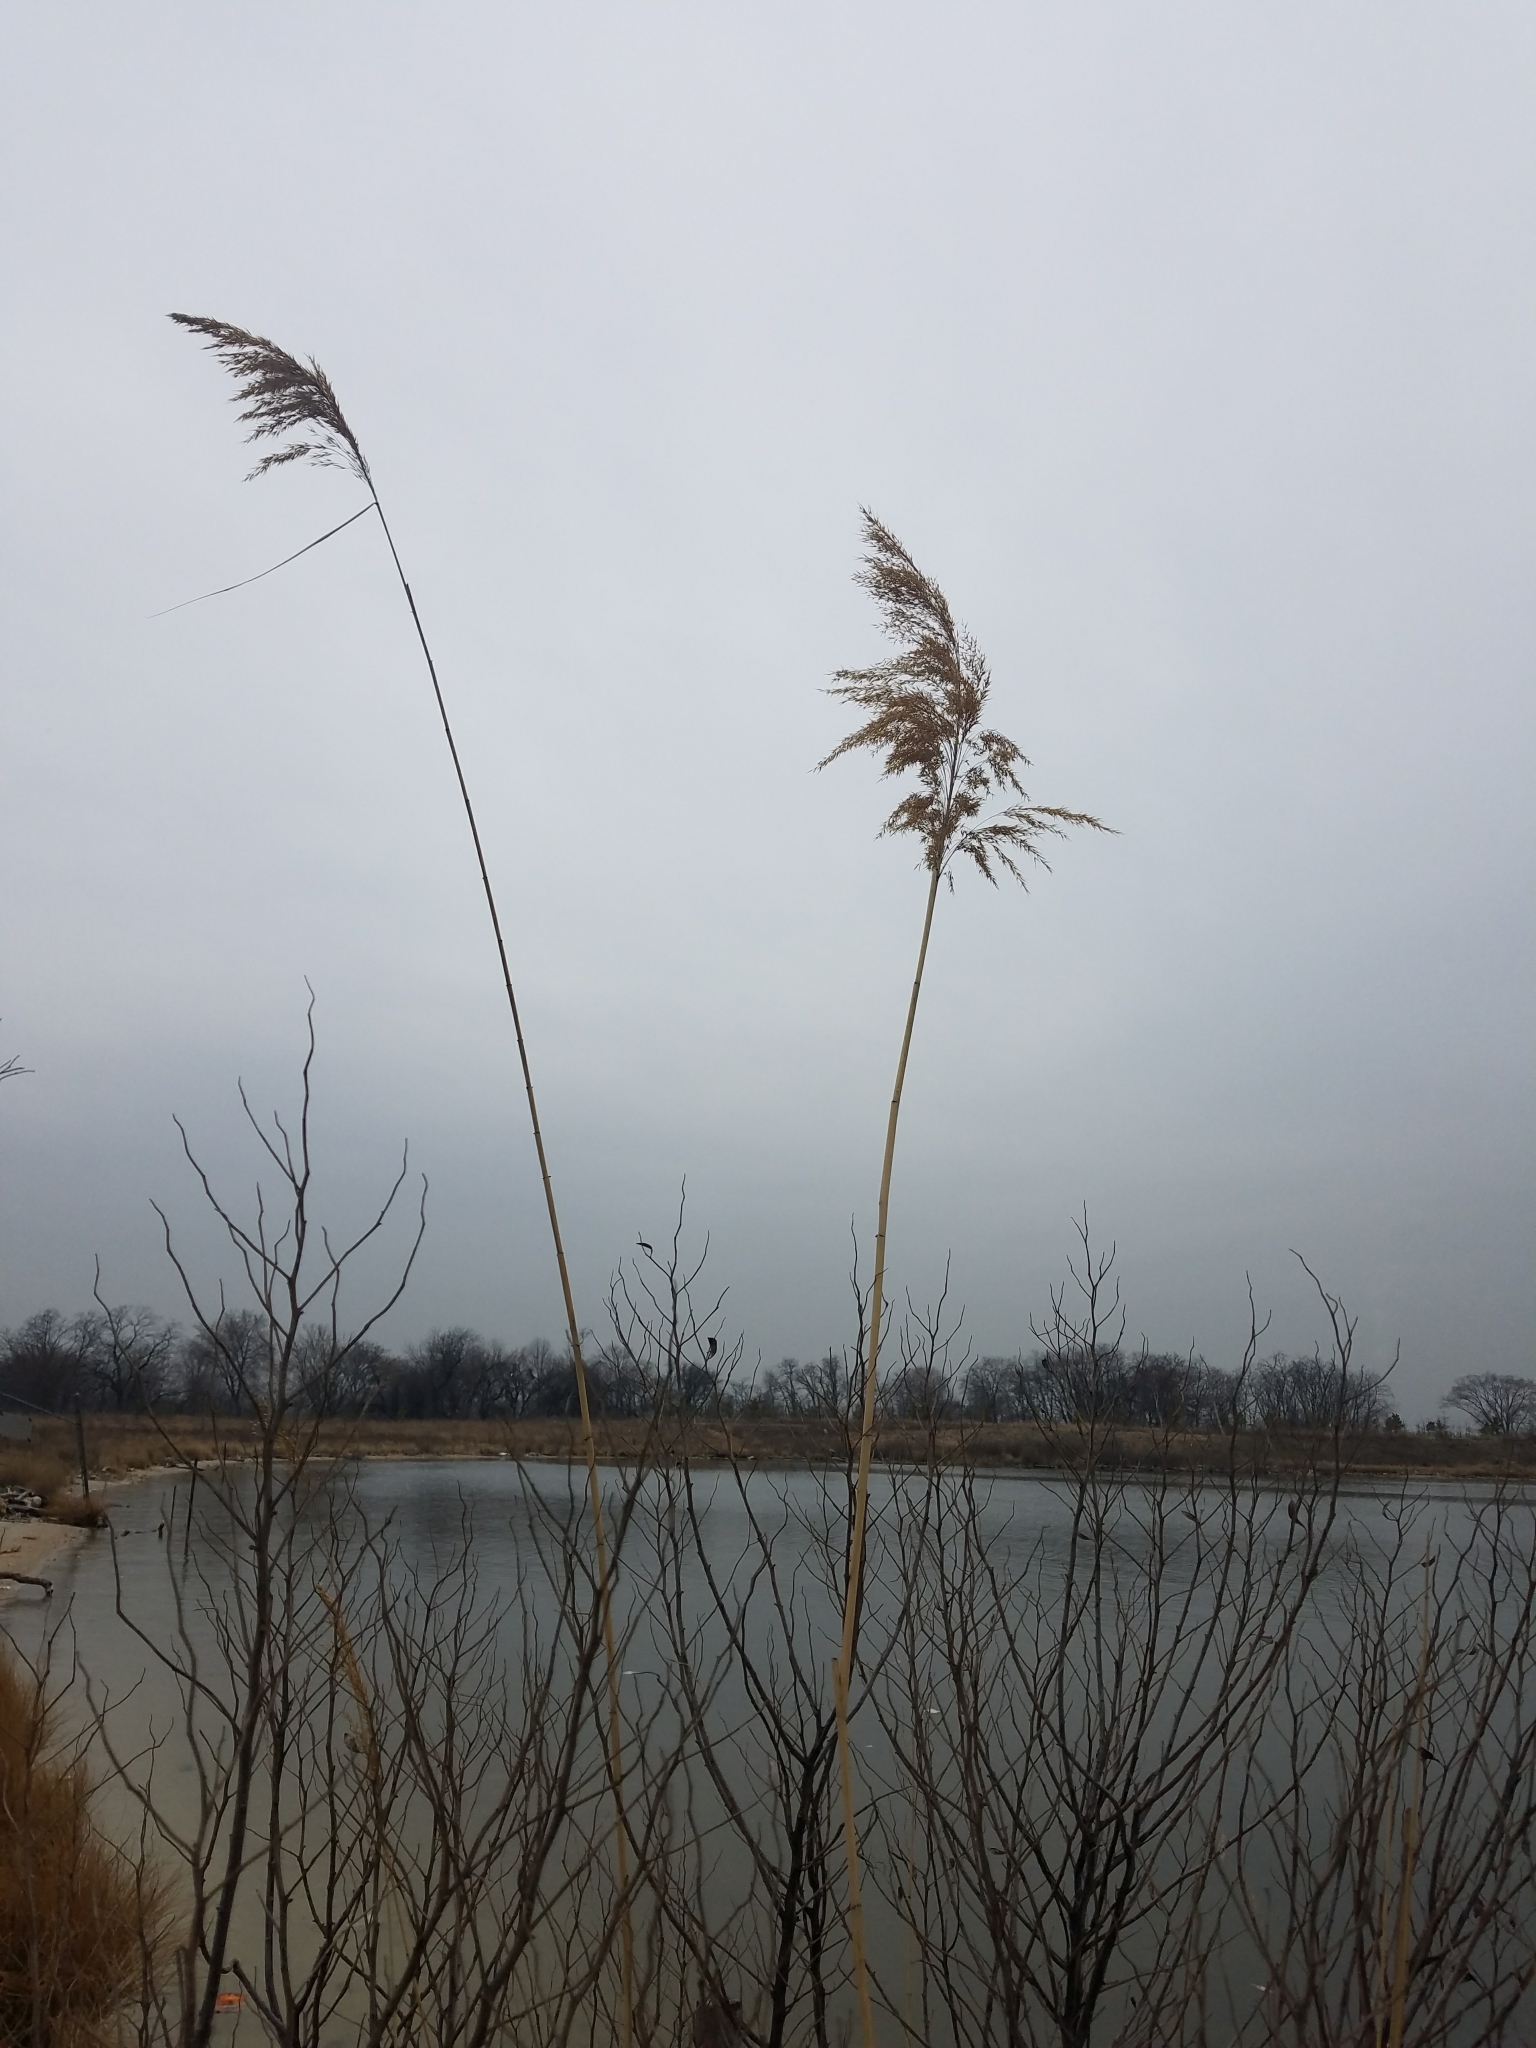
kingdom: Plantae
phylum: Tracheophyta
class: Liliopsida
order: Poales
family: Poaceae
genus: Phragmites
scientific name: Phragmites australis
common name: Common reed
